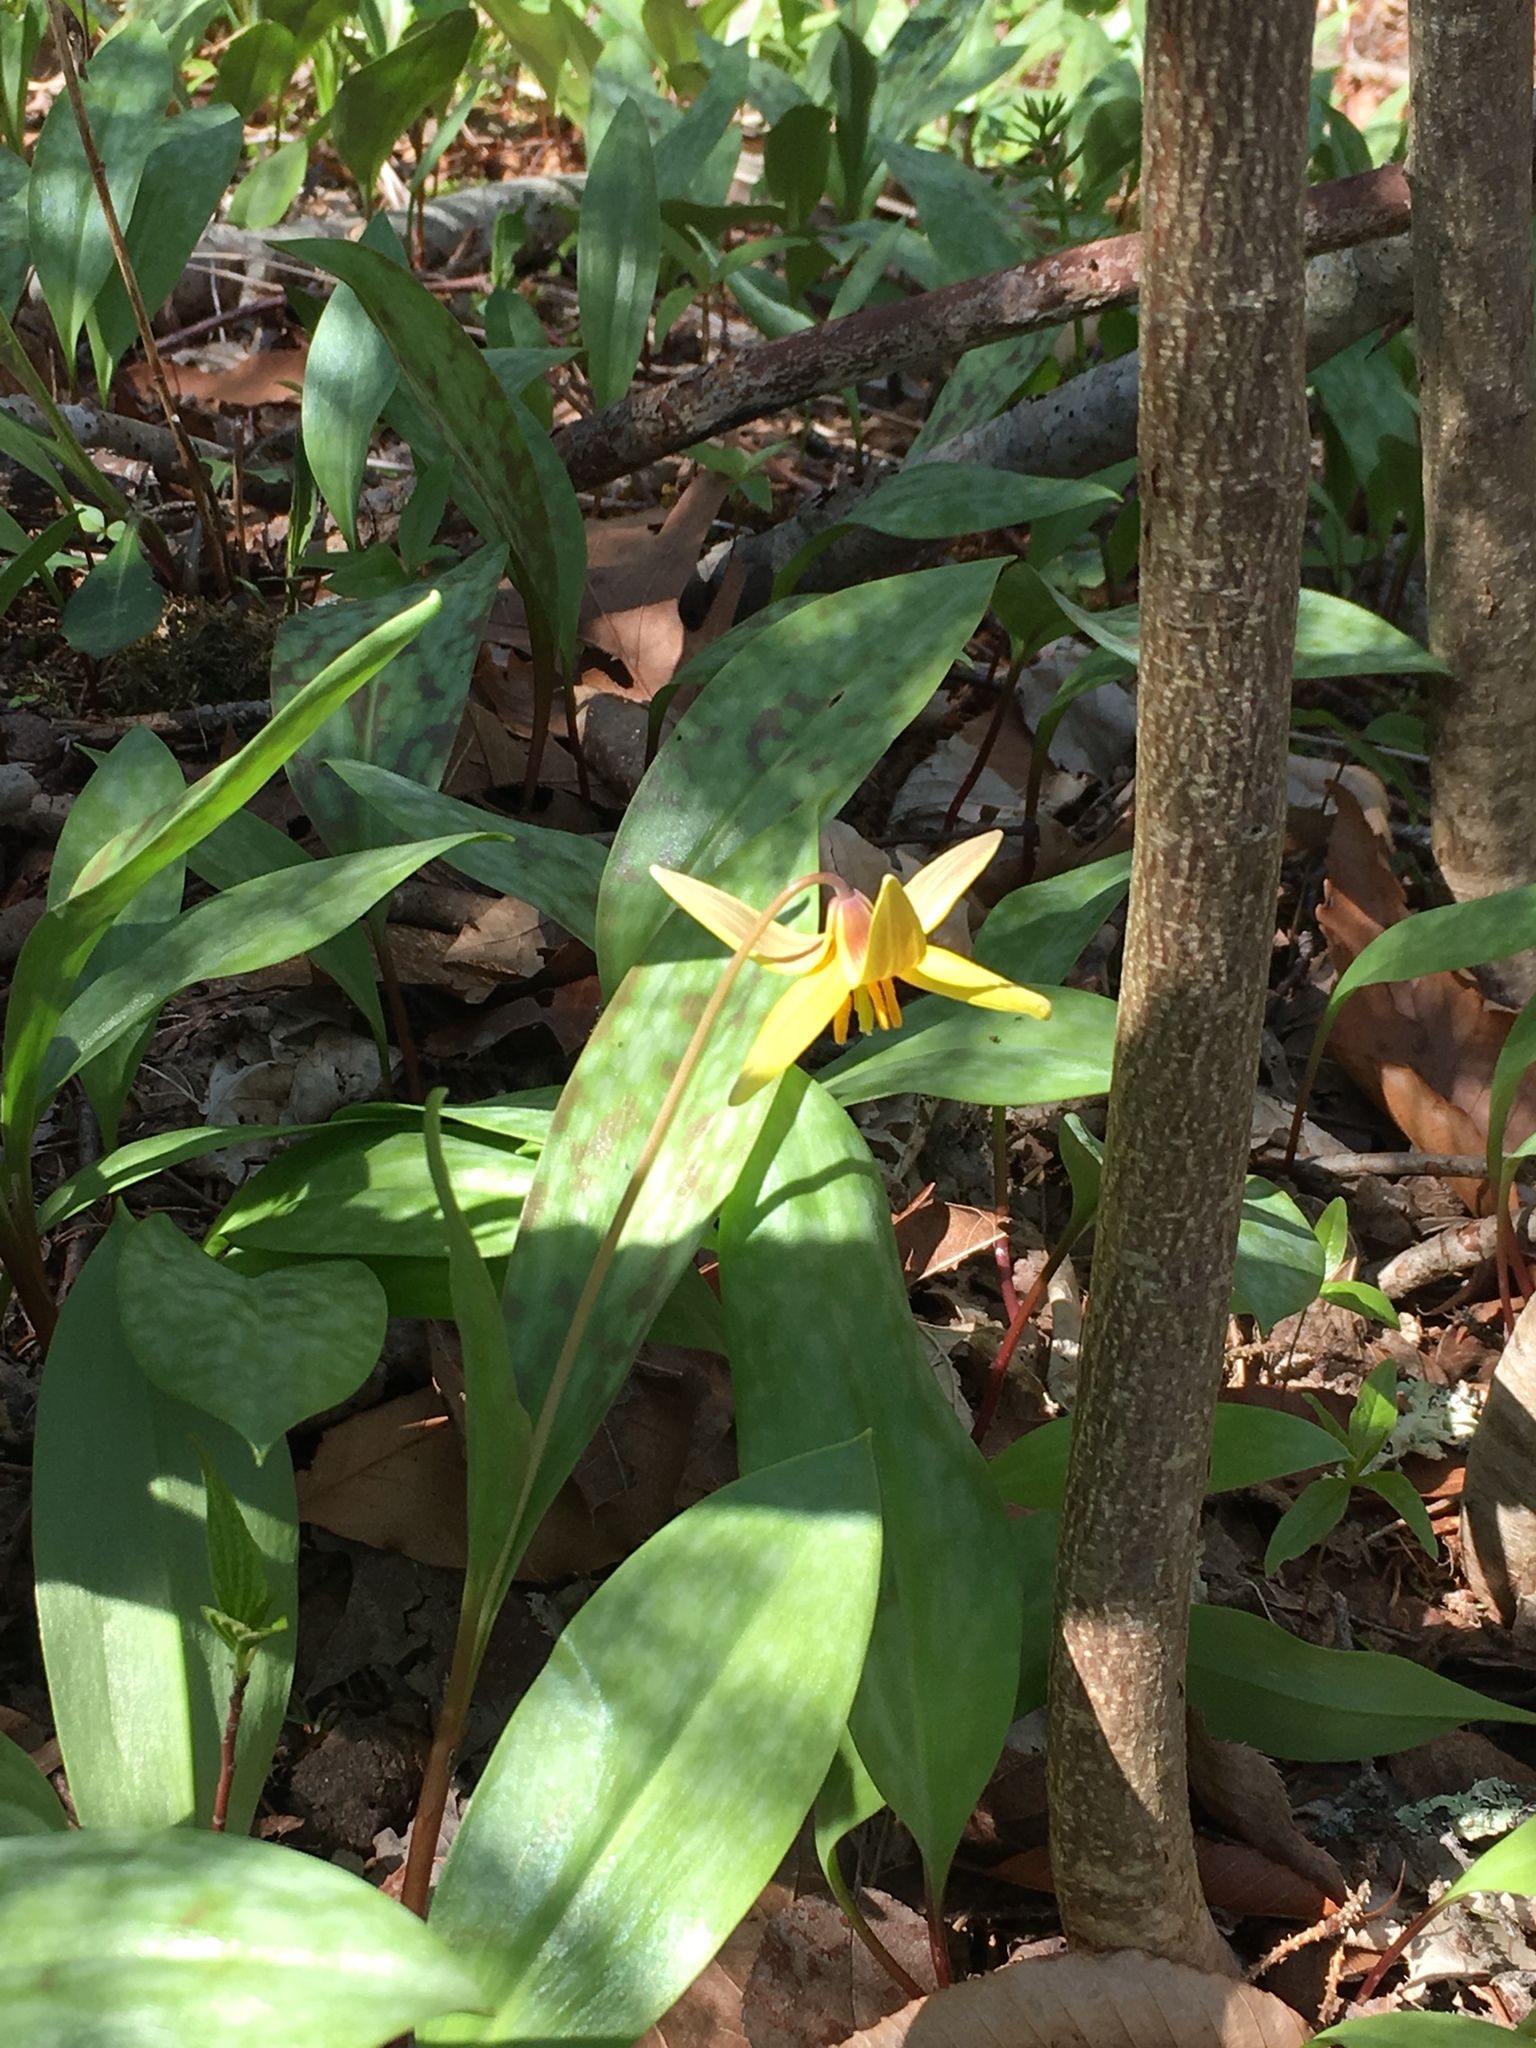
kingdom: Plantae
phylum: Tracheophyta
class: Liliopsida
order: Liliales
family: Liliaceae
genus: Erythronium
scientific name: Erythronium americanum
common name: Yellow adder's-tongue
